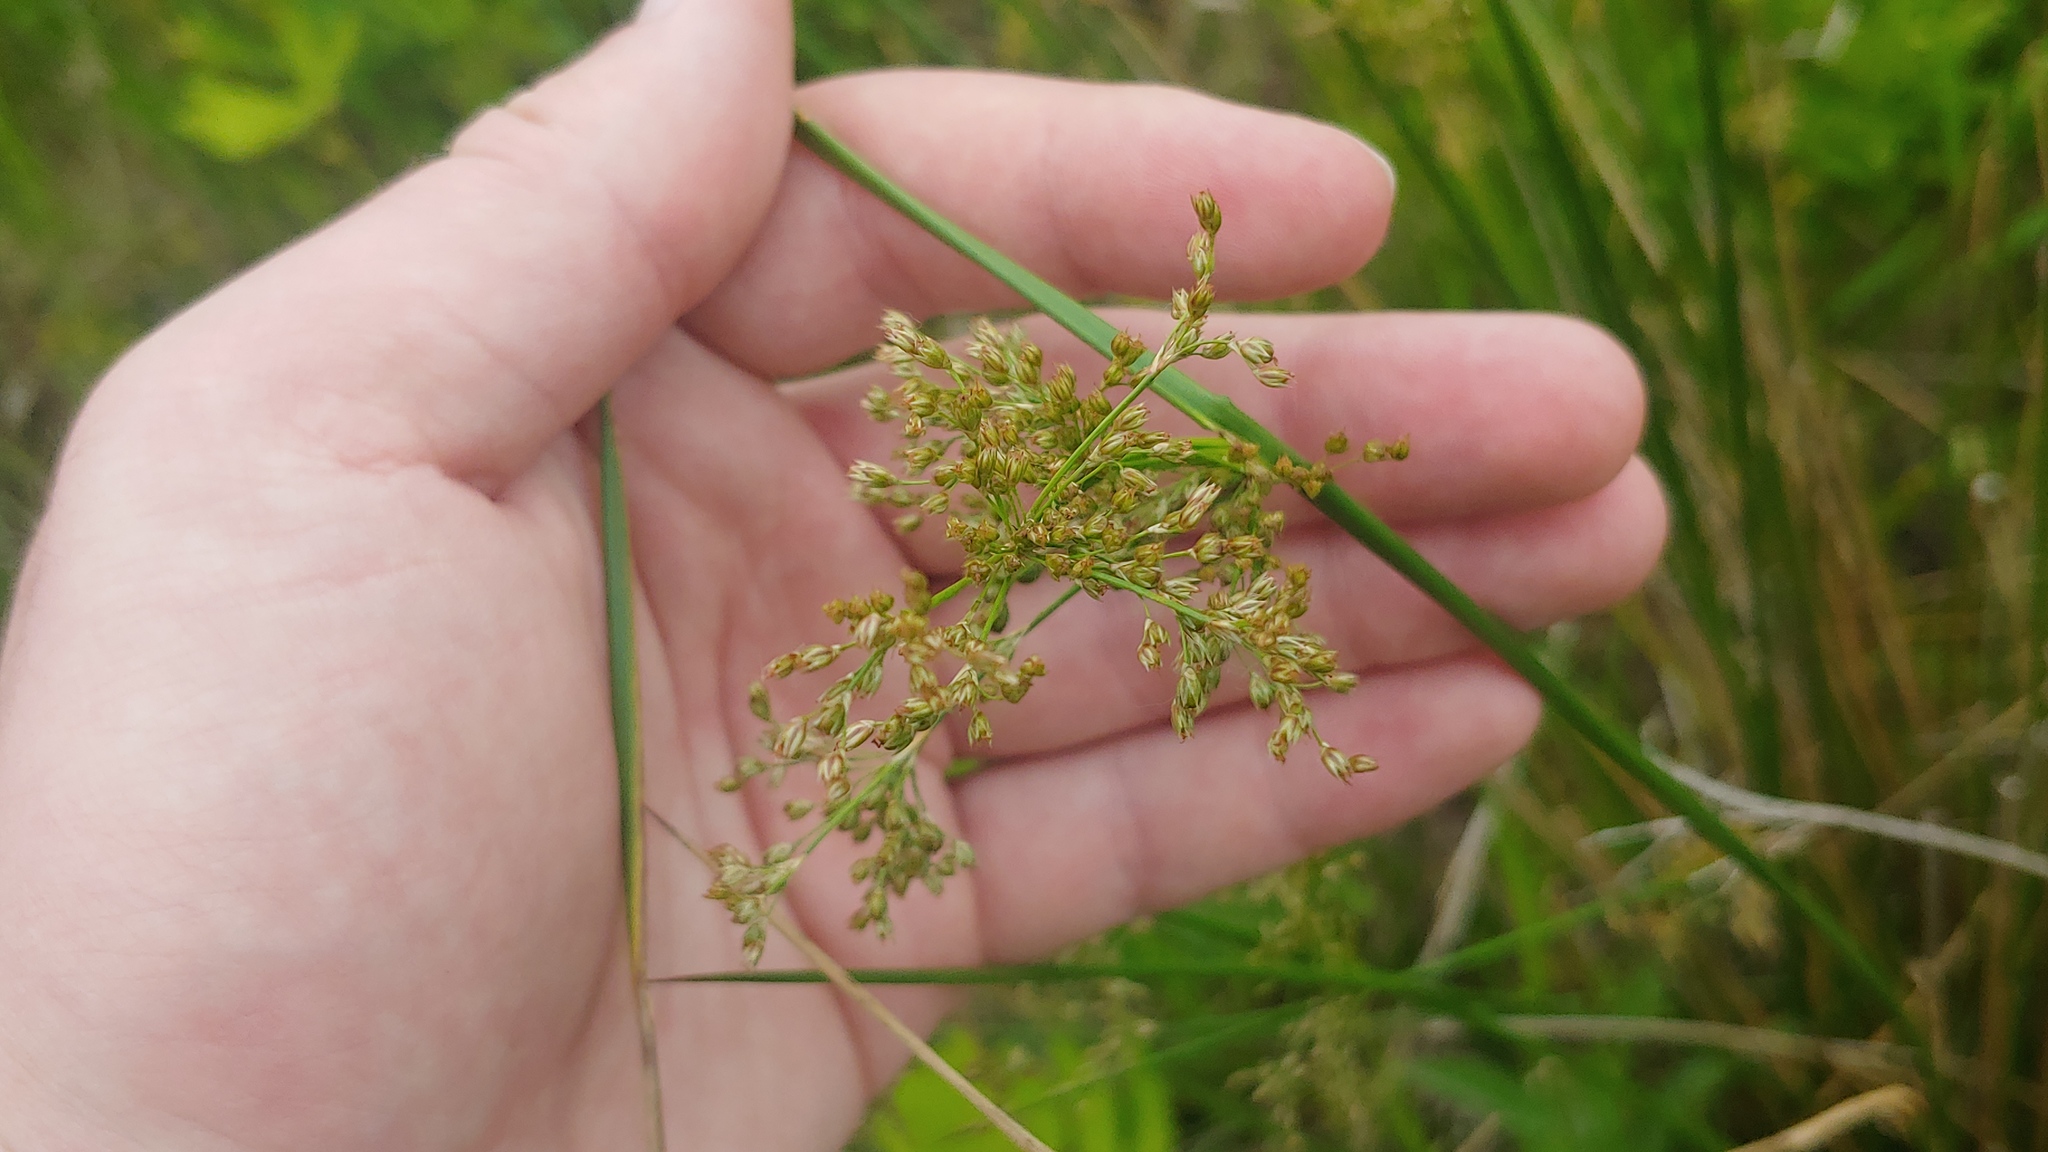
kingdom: Plantae
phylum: Tracheophyta
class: Liliopsida
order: Poales
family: Juncaceae
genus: Juncus
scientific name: Juncus effusus
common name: Soft rush
